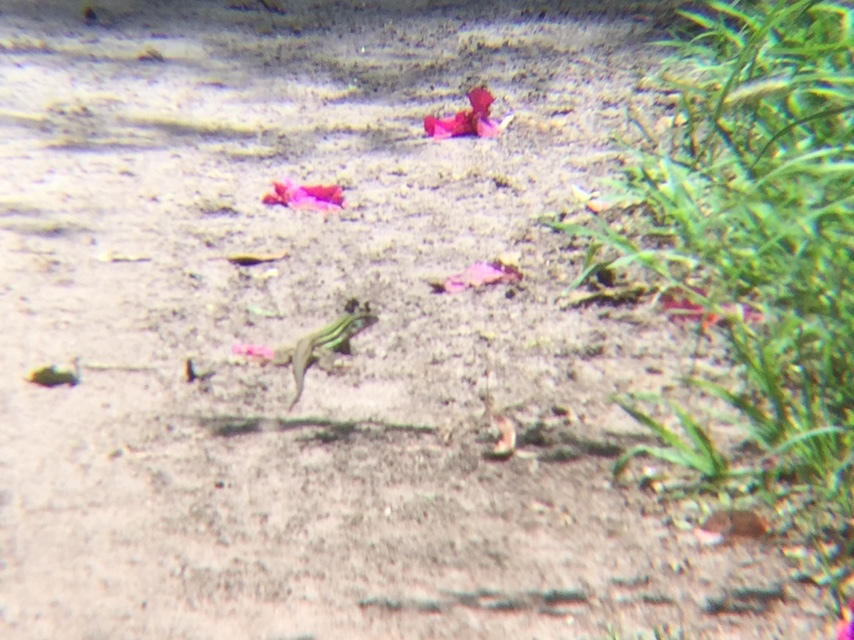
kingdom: Animalia
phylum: Chordata
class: Squamata
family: Teiidae
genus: Aspidoscelis
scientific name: Aspidoscelis gularis
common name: Eastern spotted whiptail
